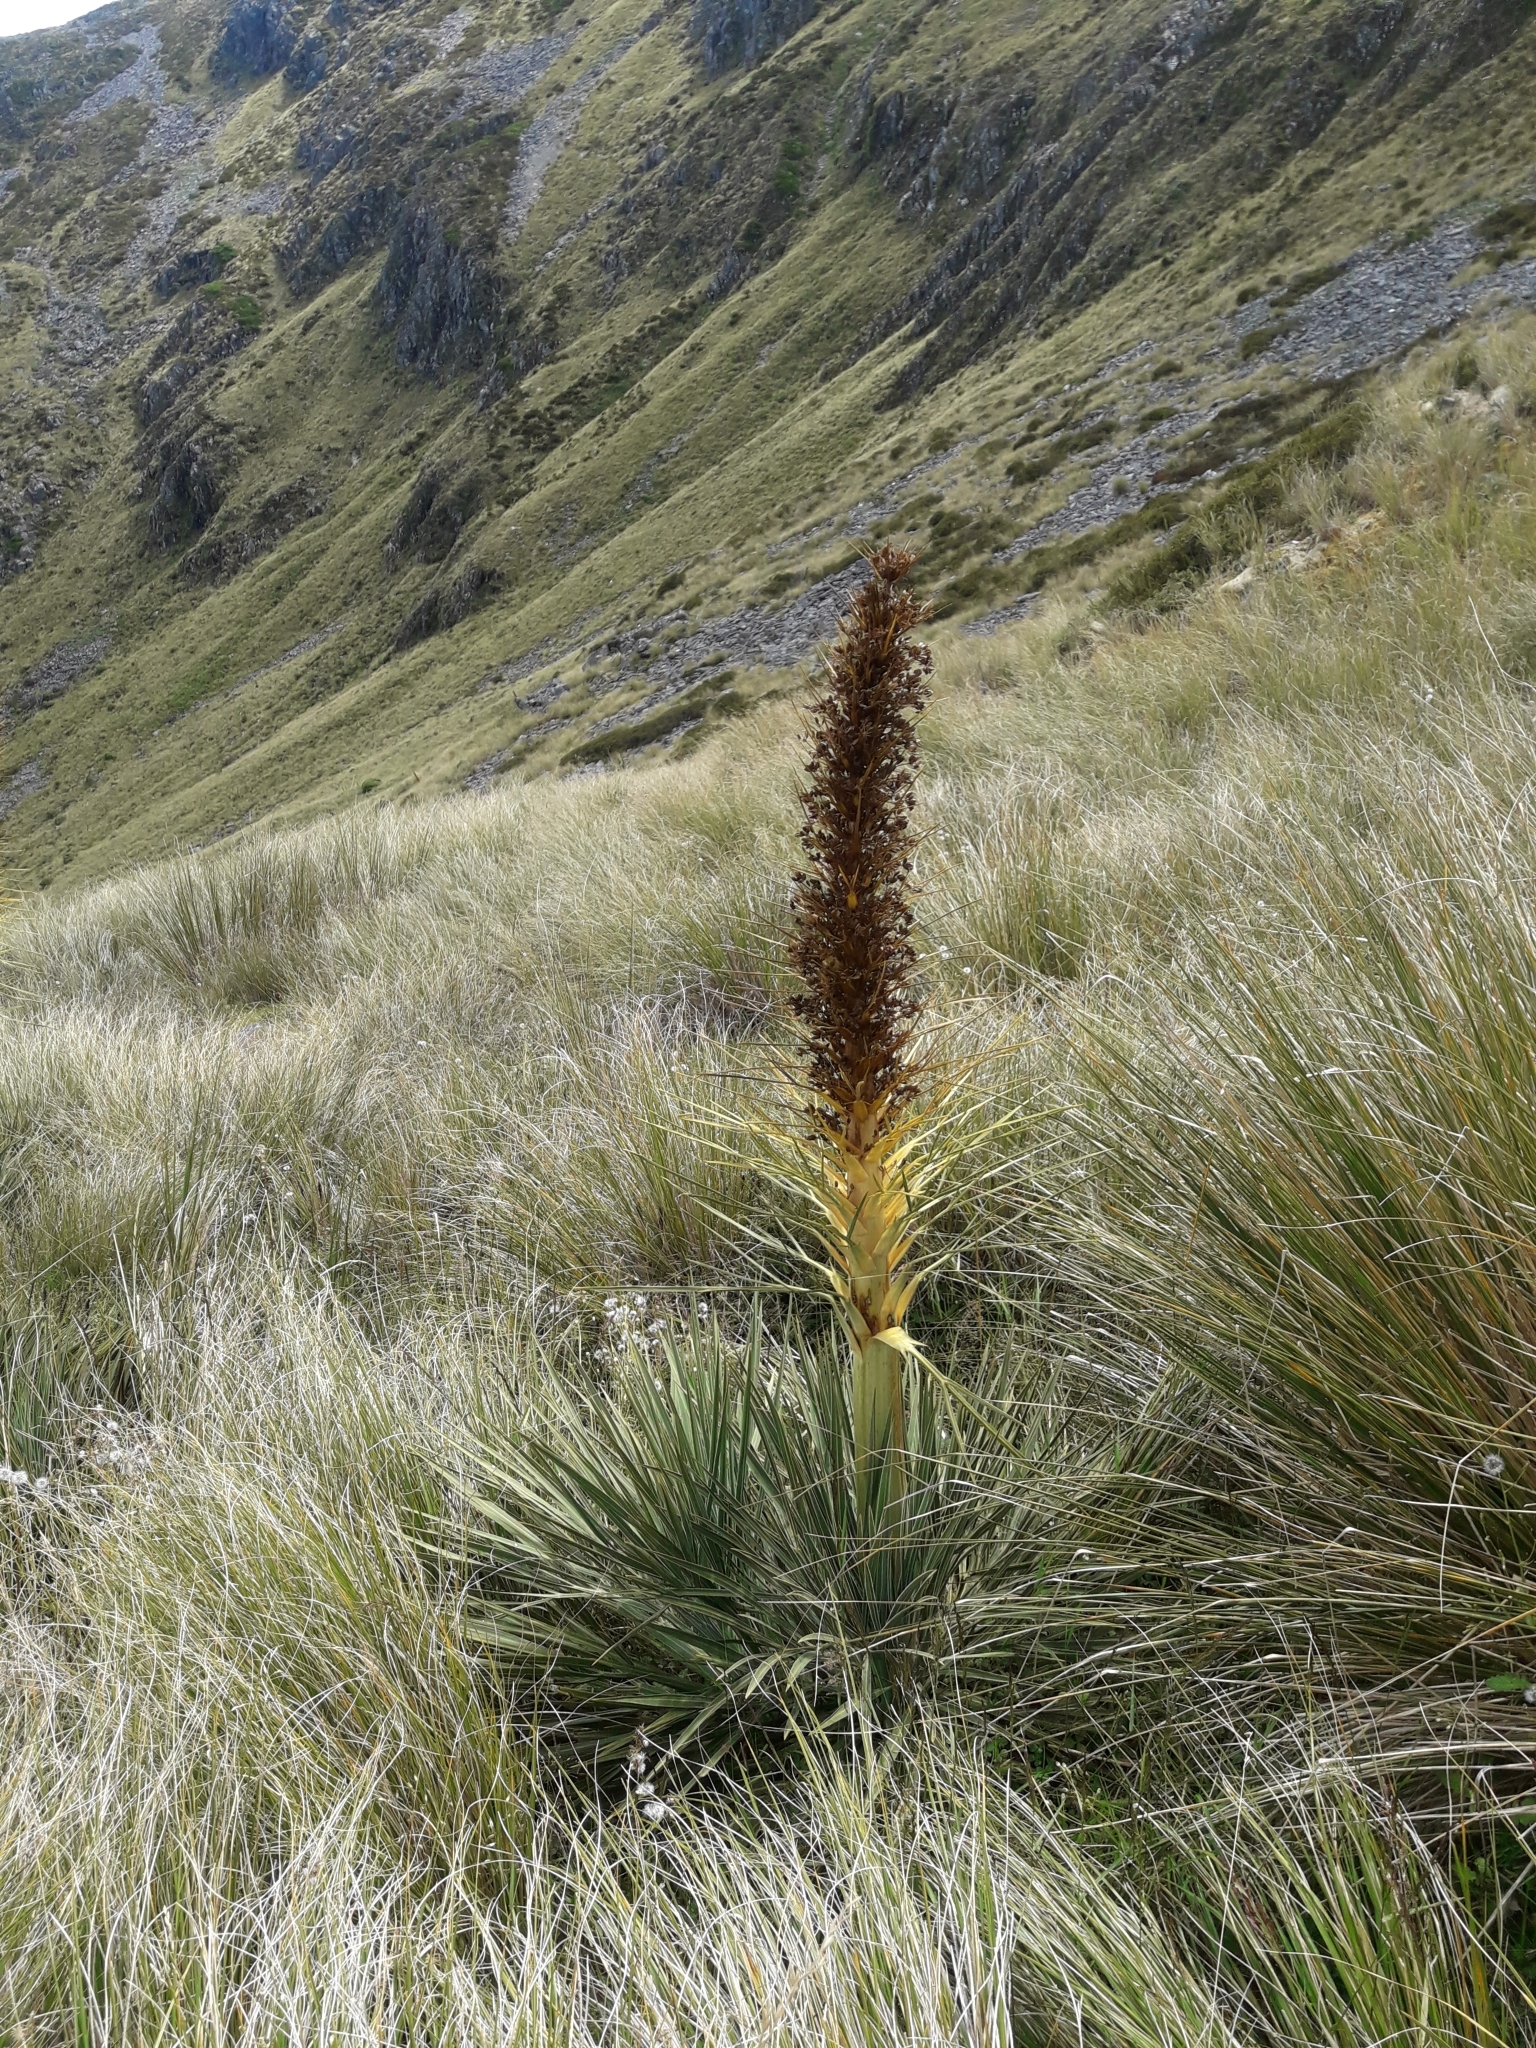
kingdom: Plantae
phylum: Tracheophyta
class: Magnoliopsida
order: Apiales
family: Apiaceae
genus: Aciphylla
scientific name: Aciphylla colensoi
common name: Colenso's spaniard
